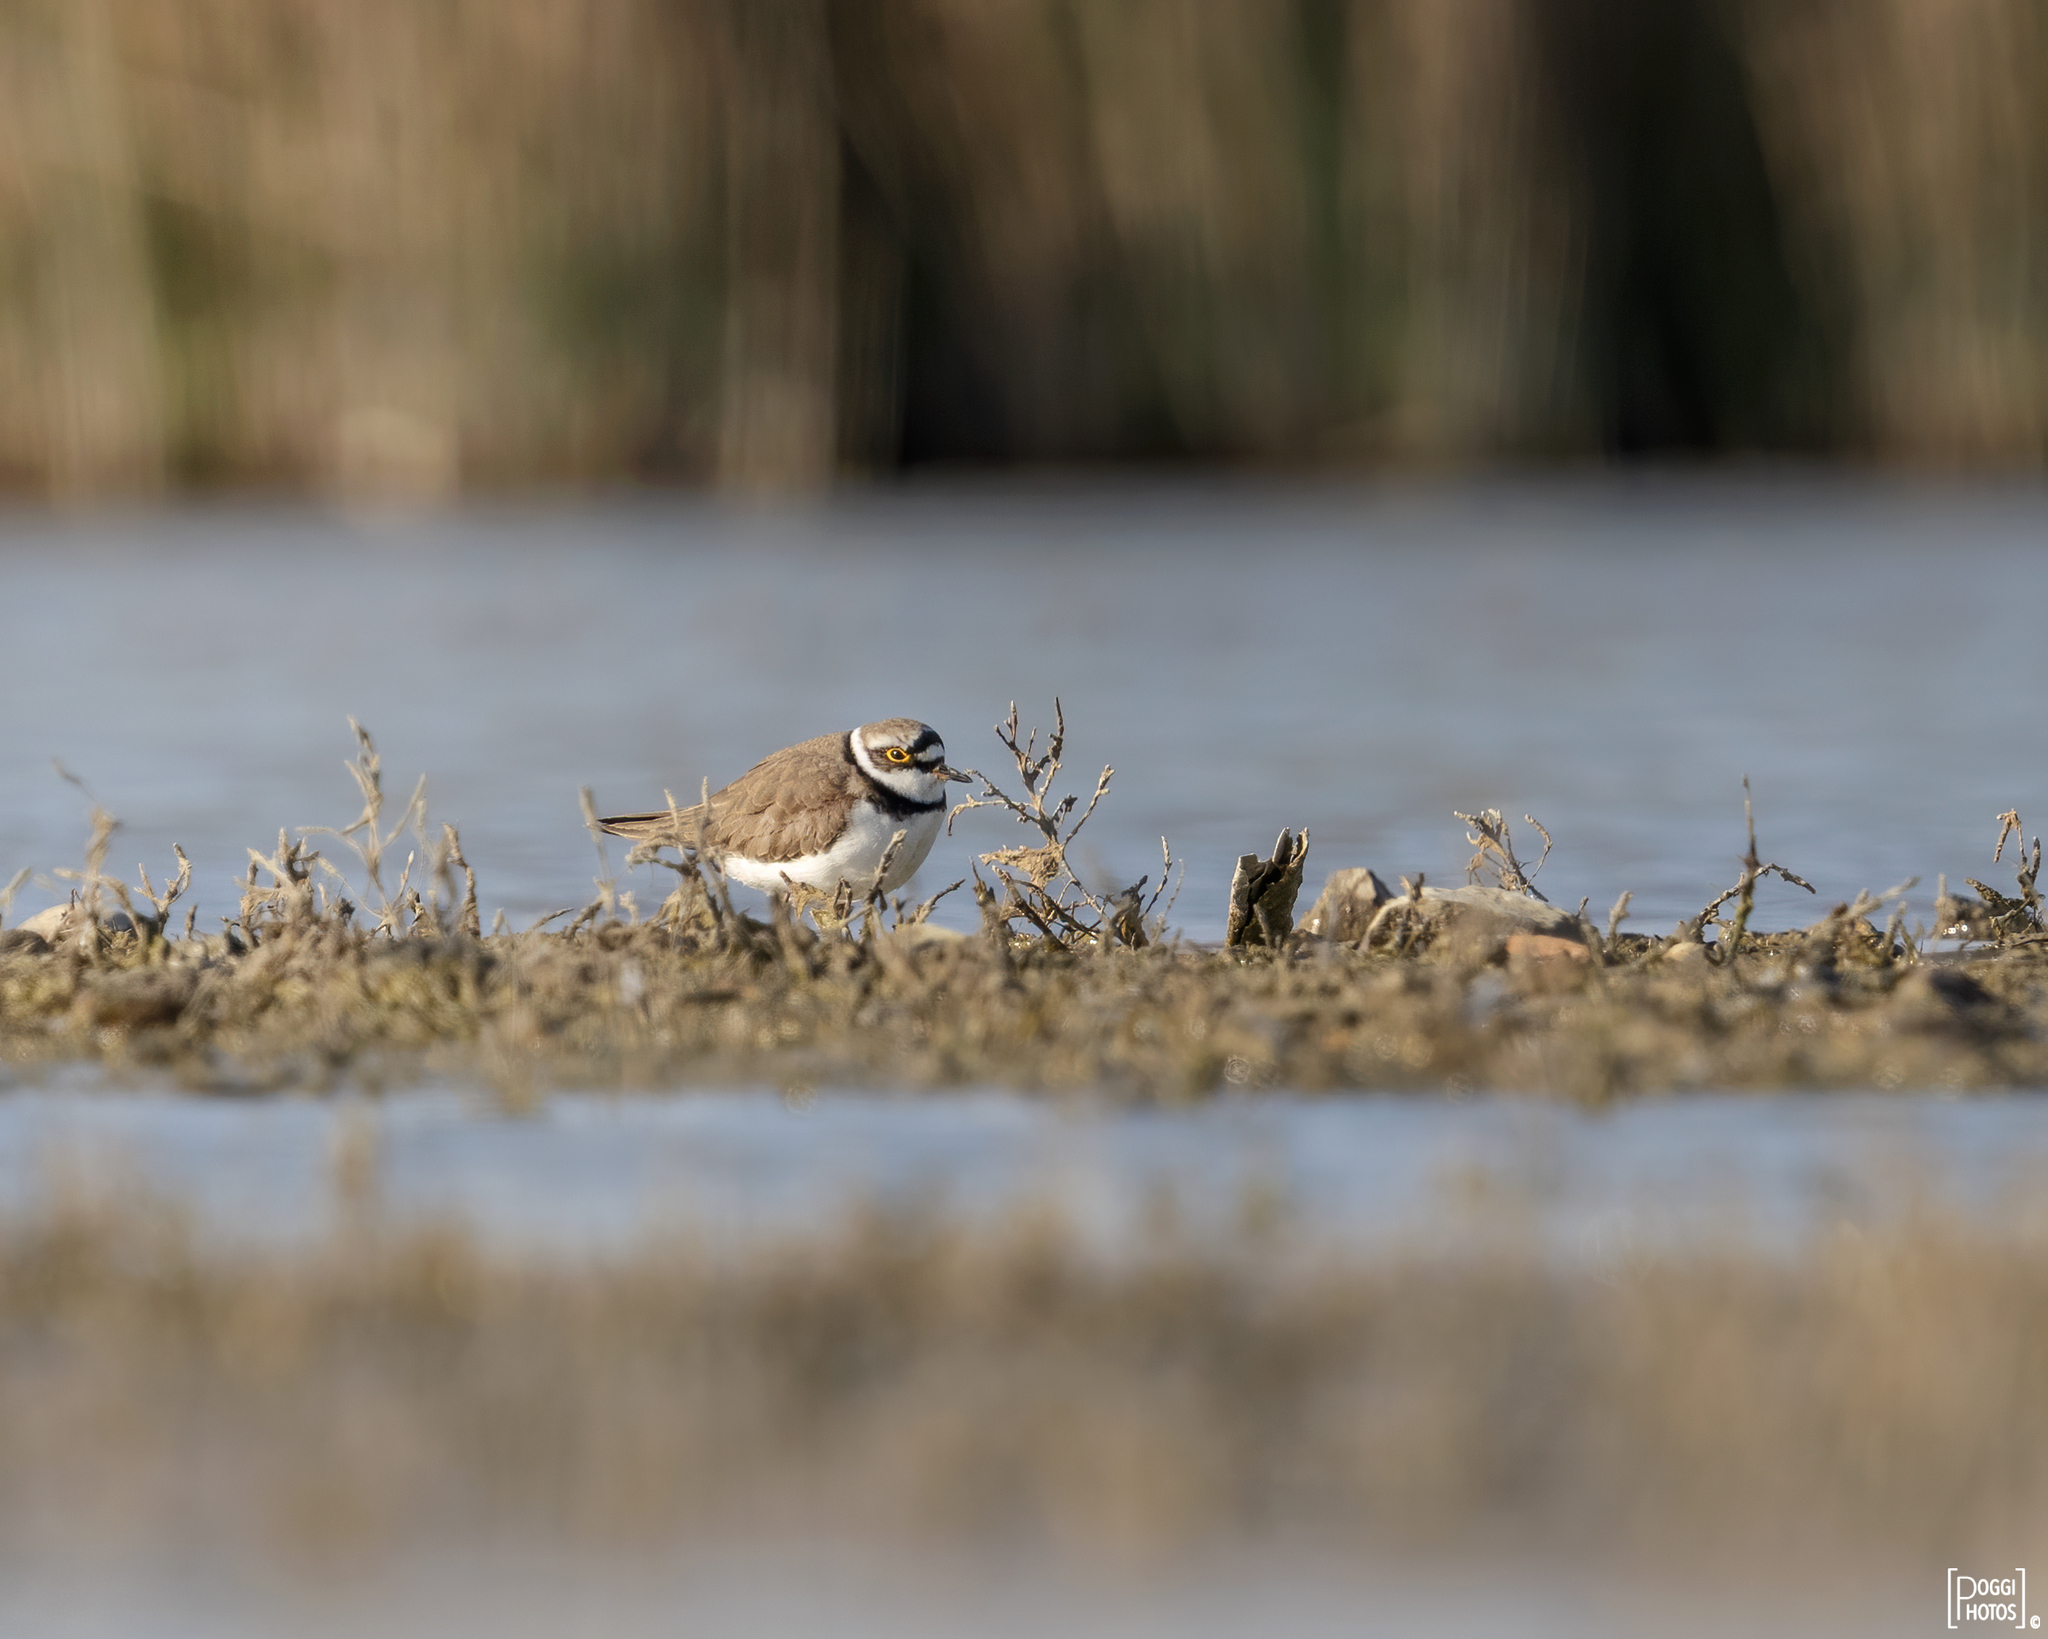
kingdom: Animalia
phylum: Chordata
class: Aves
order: Charadriiformes
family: Charadriidae
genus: Charadrius
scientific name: Charadrius dubius
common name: Little ringed plover
